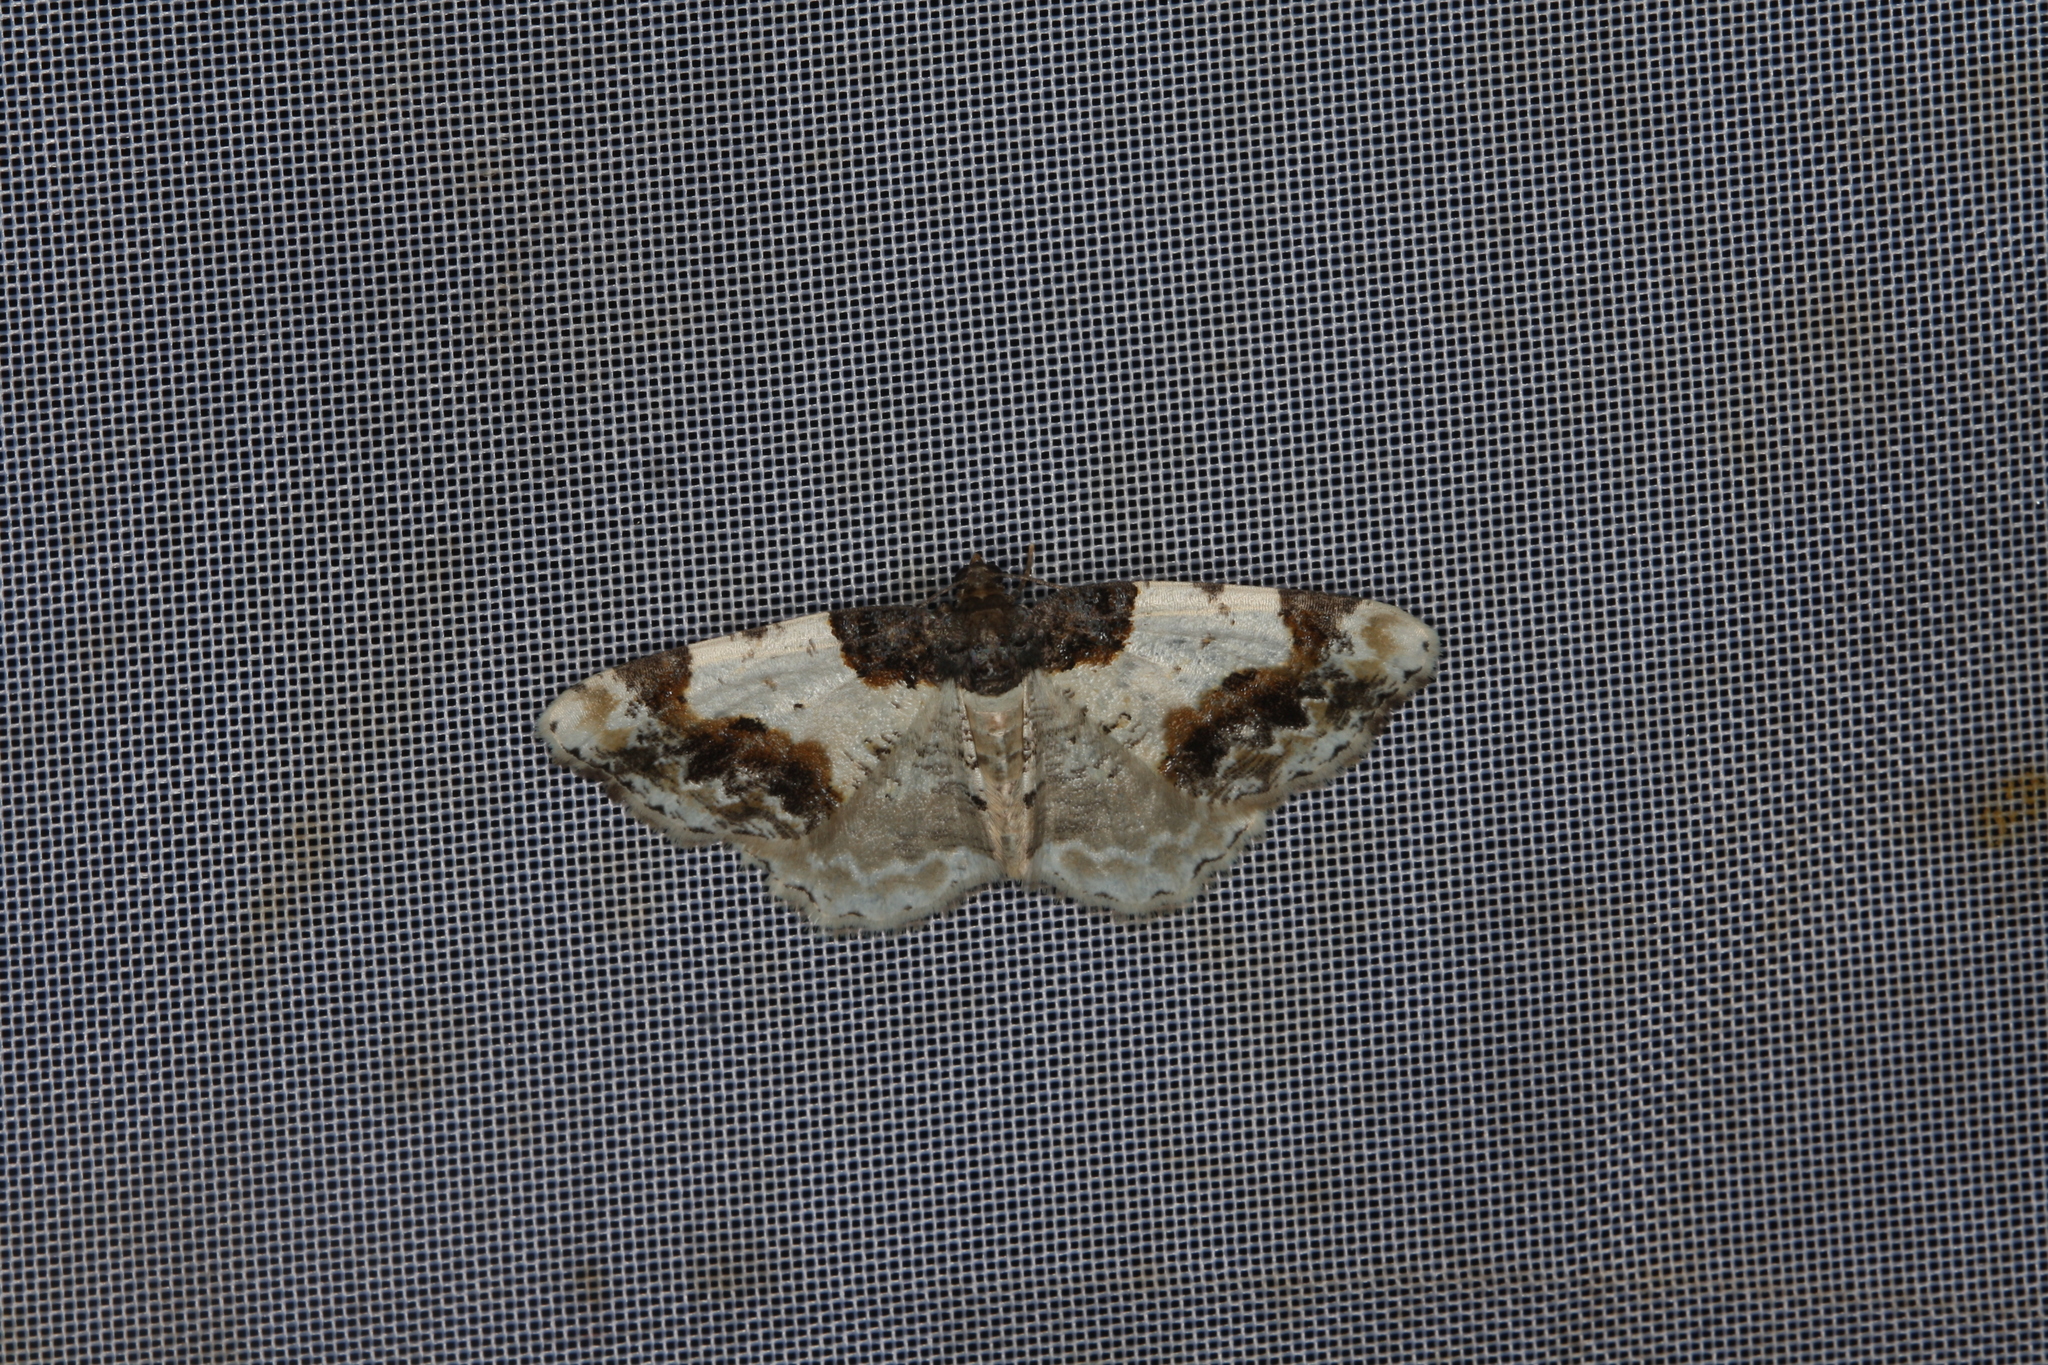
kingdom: Animalia
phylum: Arthropoda
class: Insecta
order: Lepidoptera
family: Geometridae
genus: Ligdia
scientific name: Ligdia adustata
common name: Scorched carpet
